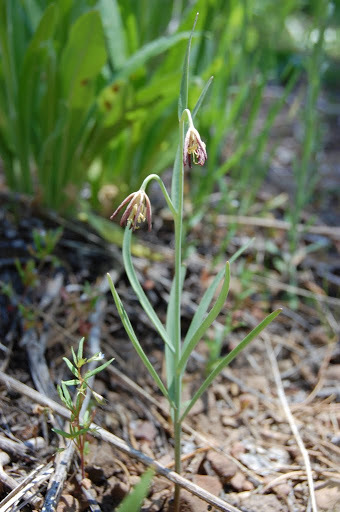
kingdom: Plantae
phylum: Tracheophyta
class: Liliopsida
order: Liliales
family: Liliaceae
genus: Fritillaria
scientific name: Fritillaria atropurpurea
